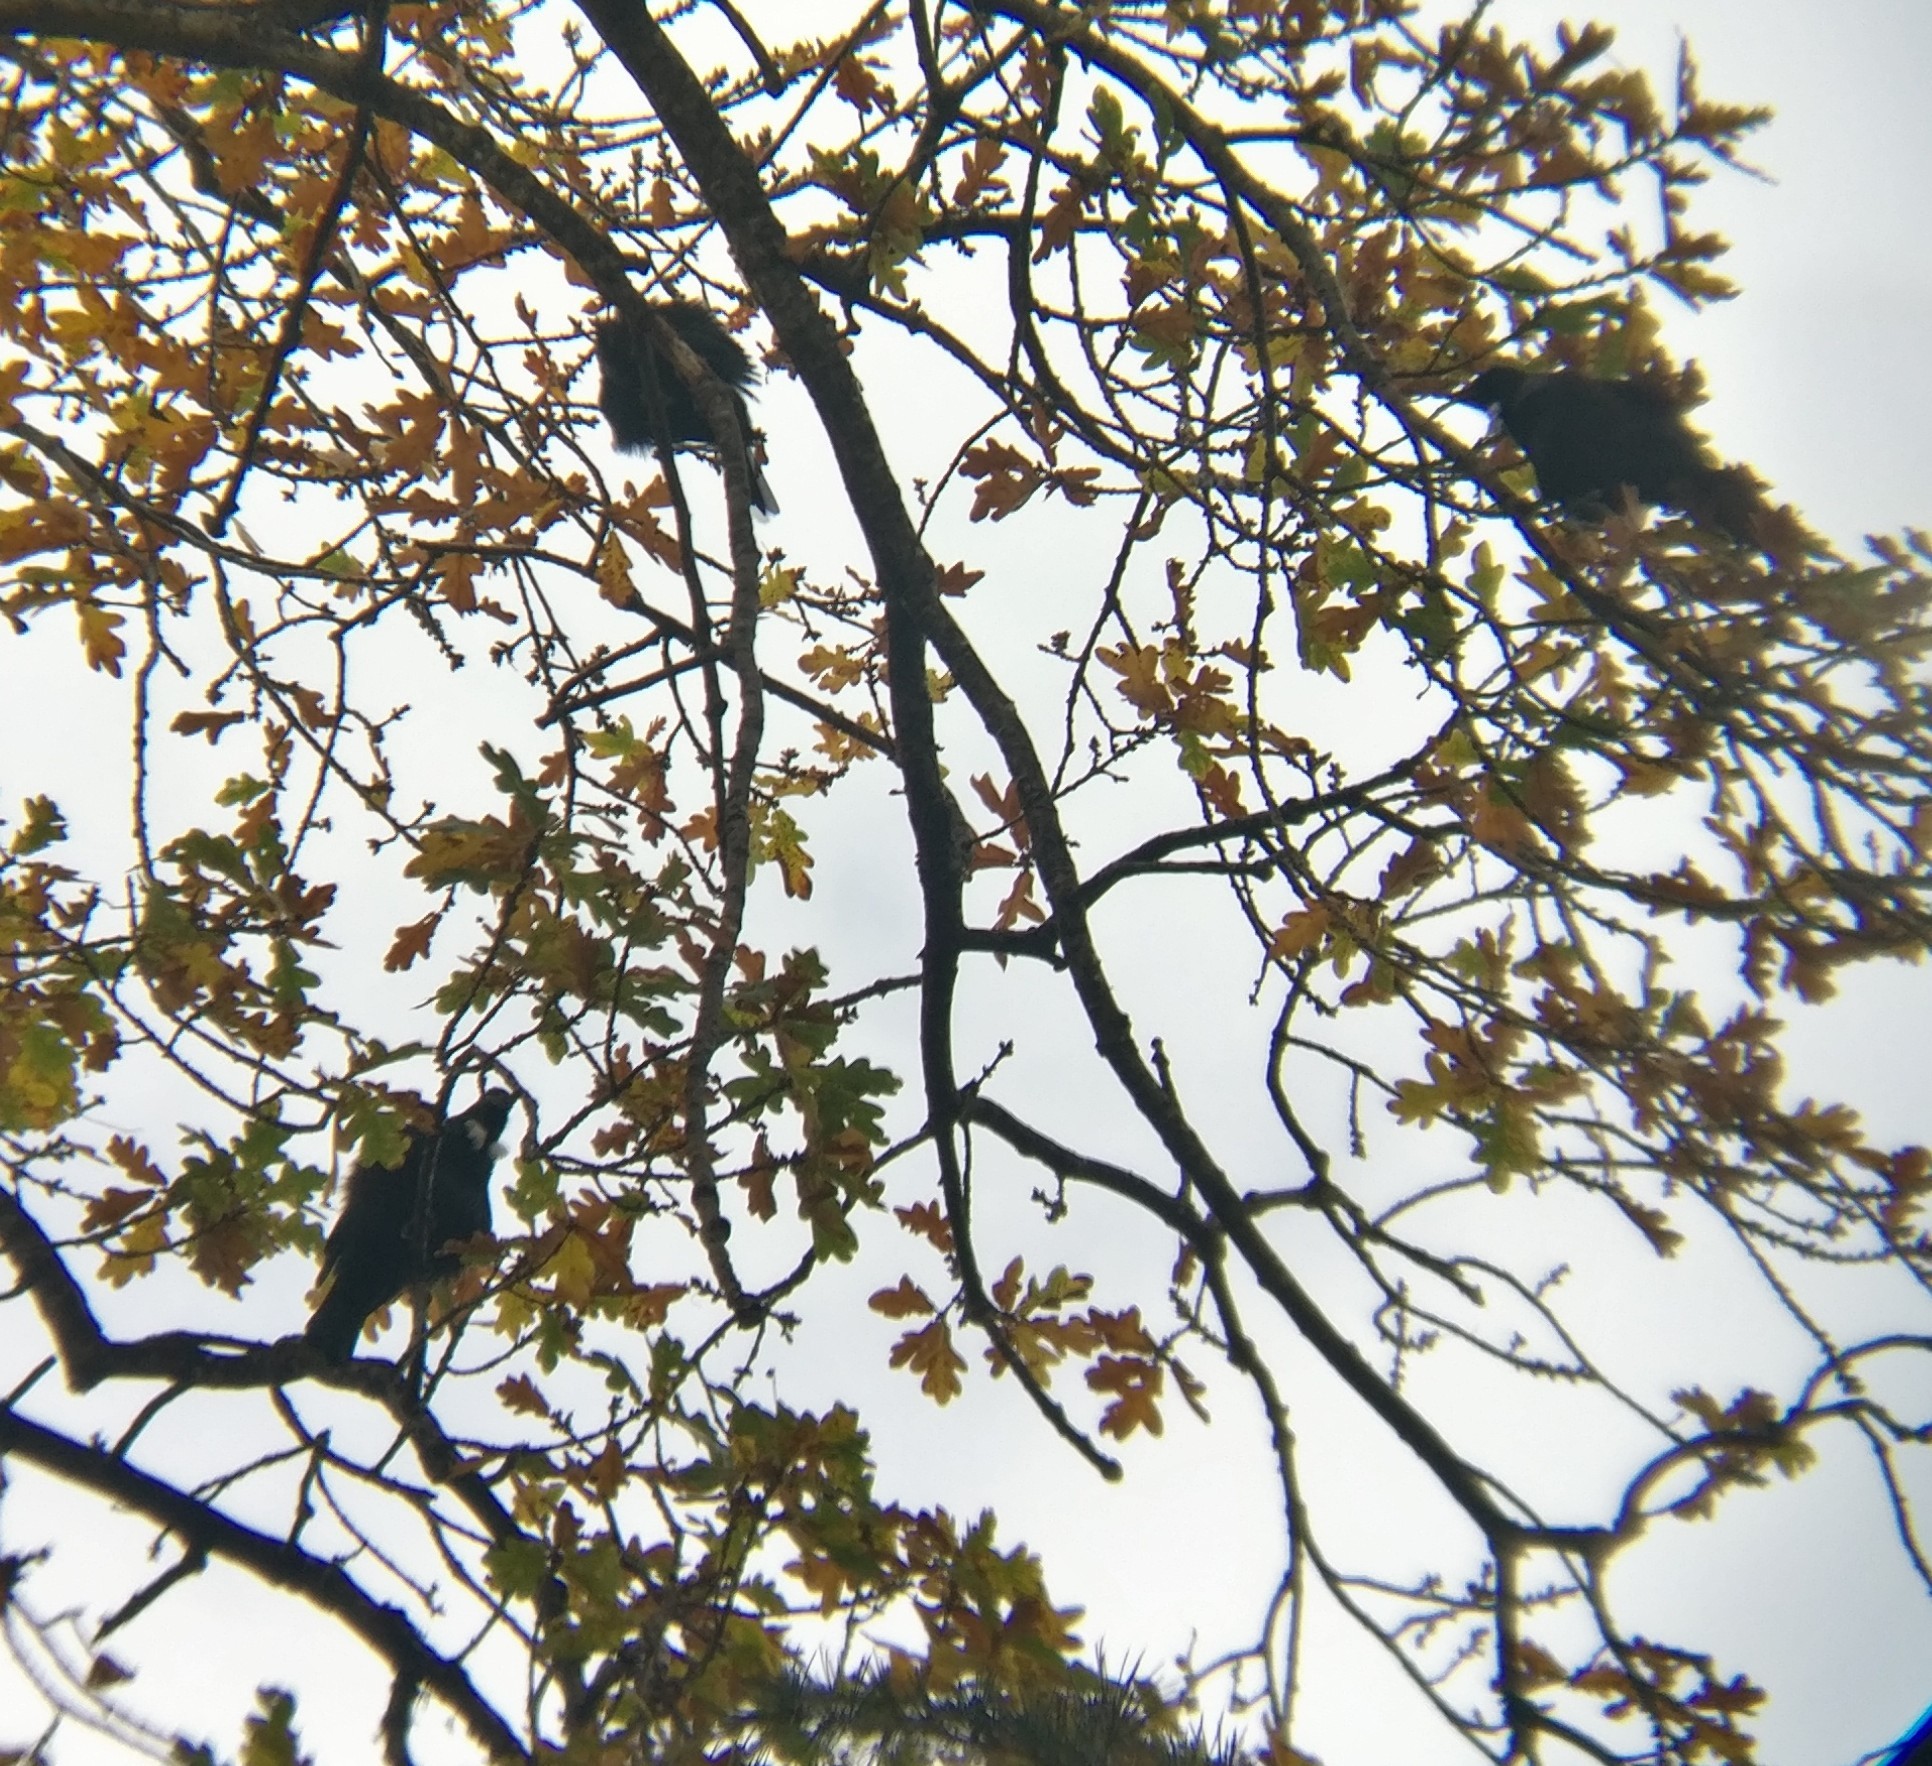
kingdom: Animalia
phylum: Chordata
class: Aves
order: Passeriformes
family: Meliphagidae
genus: Prosthemadera
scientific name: Prosthemadera novaeseelandiae
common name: Tui
